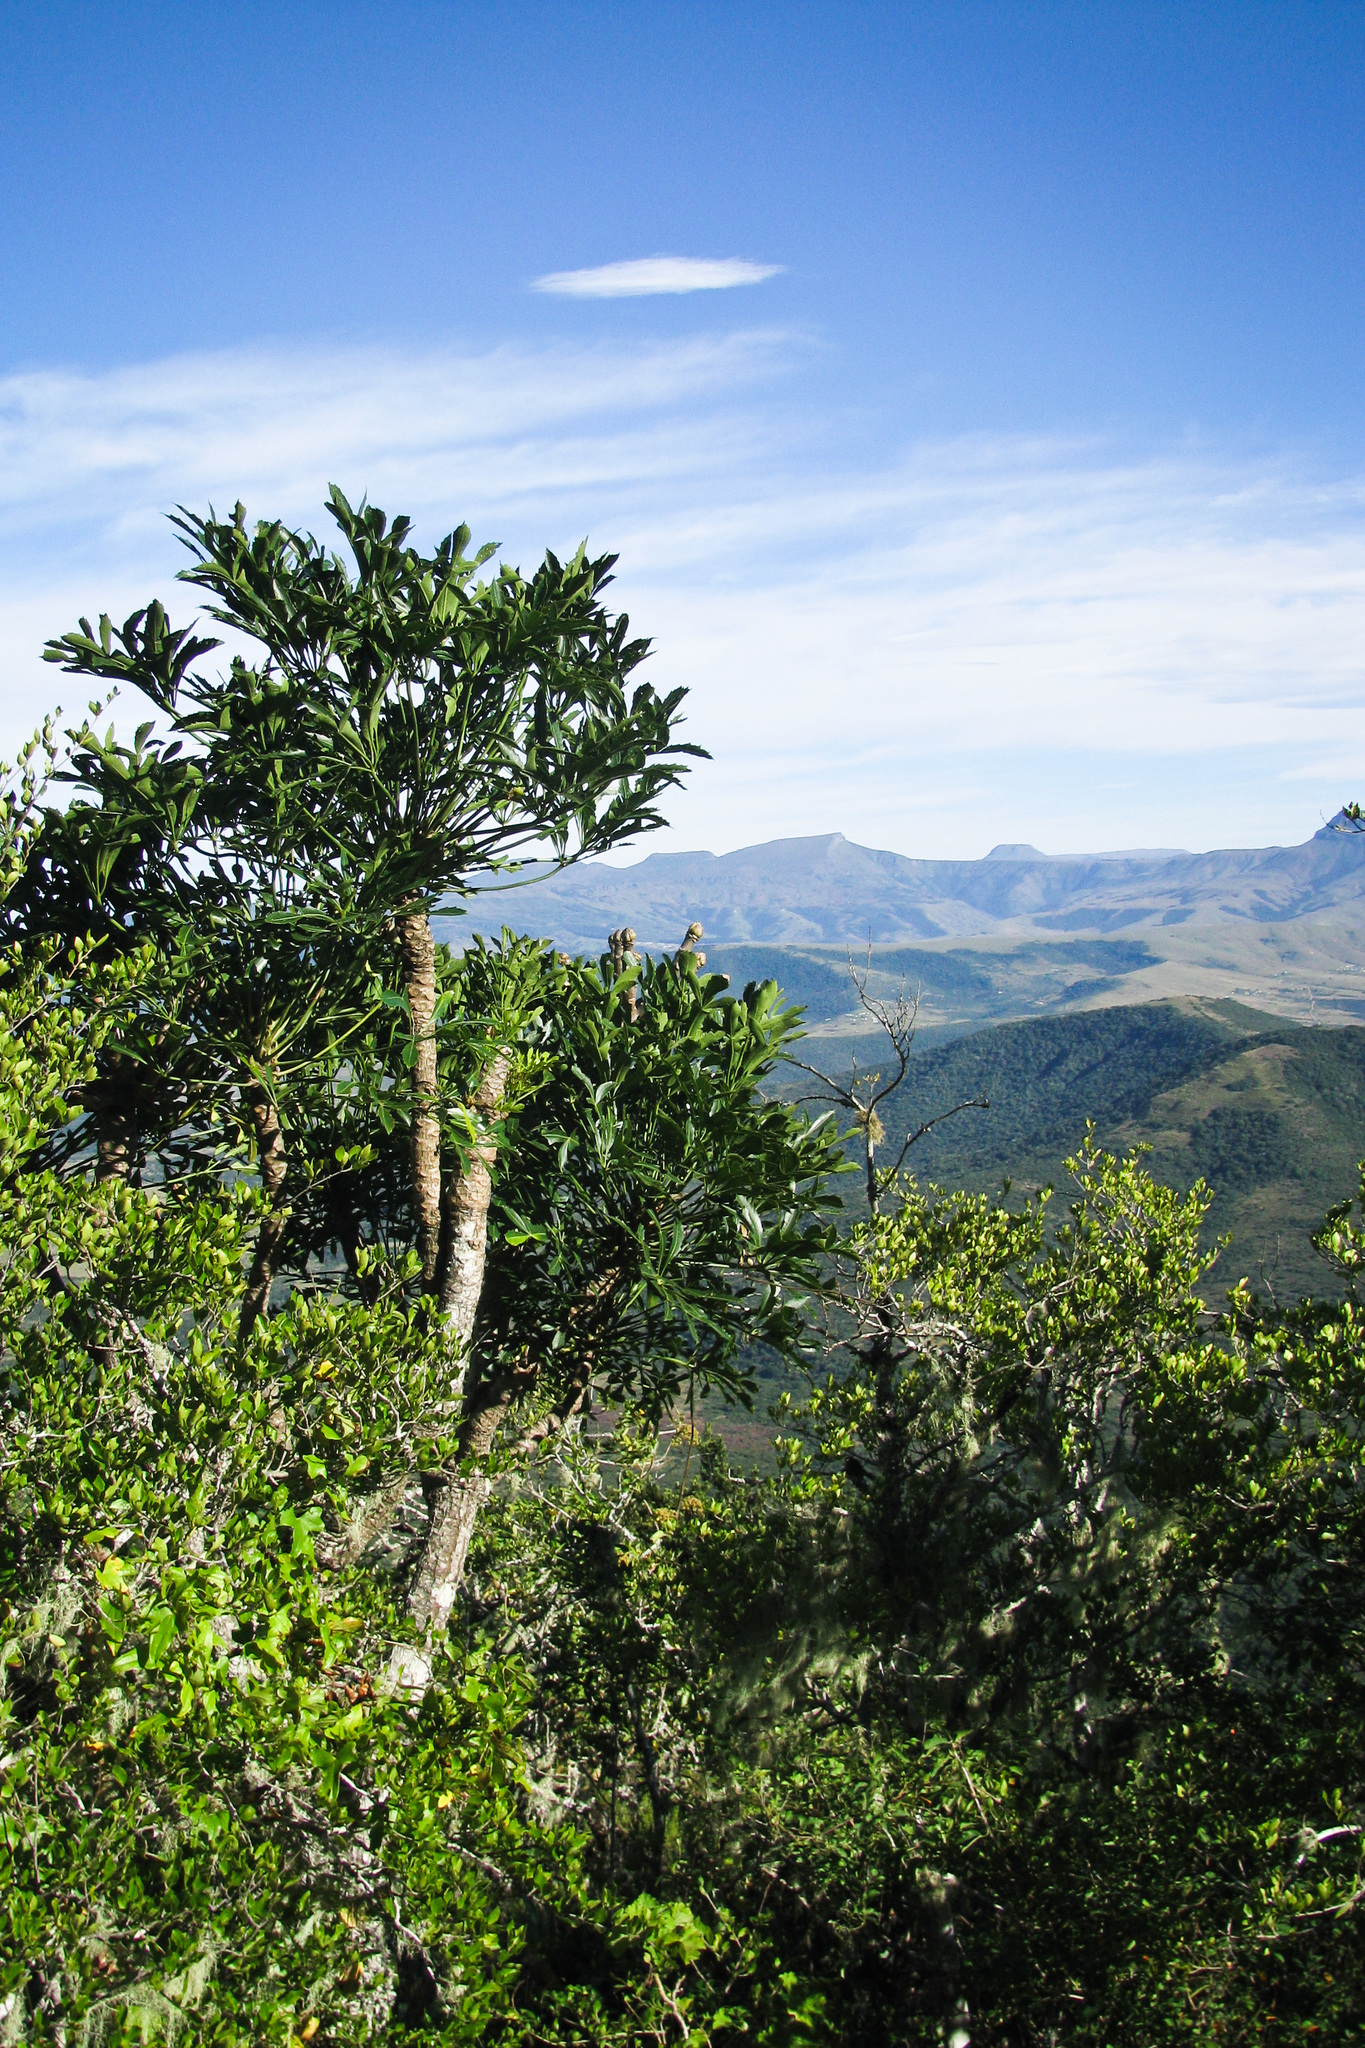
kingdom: Plantae
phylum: Tracheophyta
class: Magnoliopsida
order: Apiales
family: Araliaceae
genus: Cussonia
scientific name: Cussonia spicata
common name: Common cabbagetree
